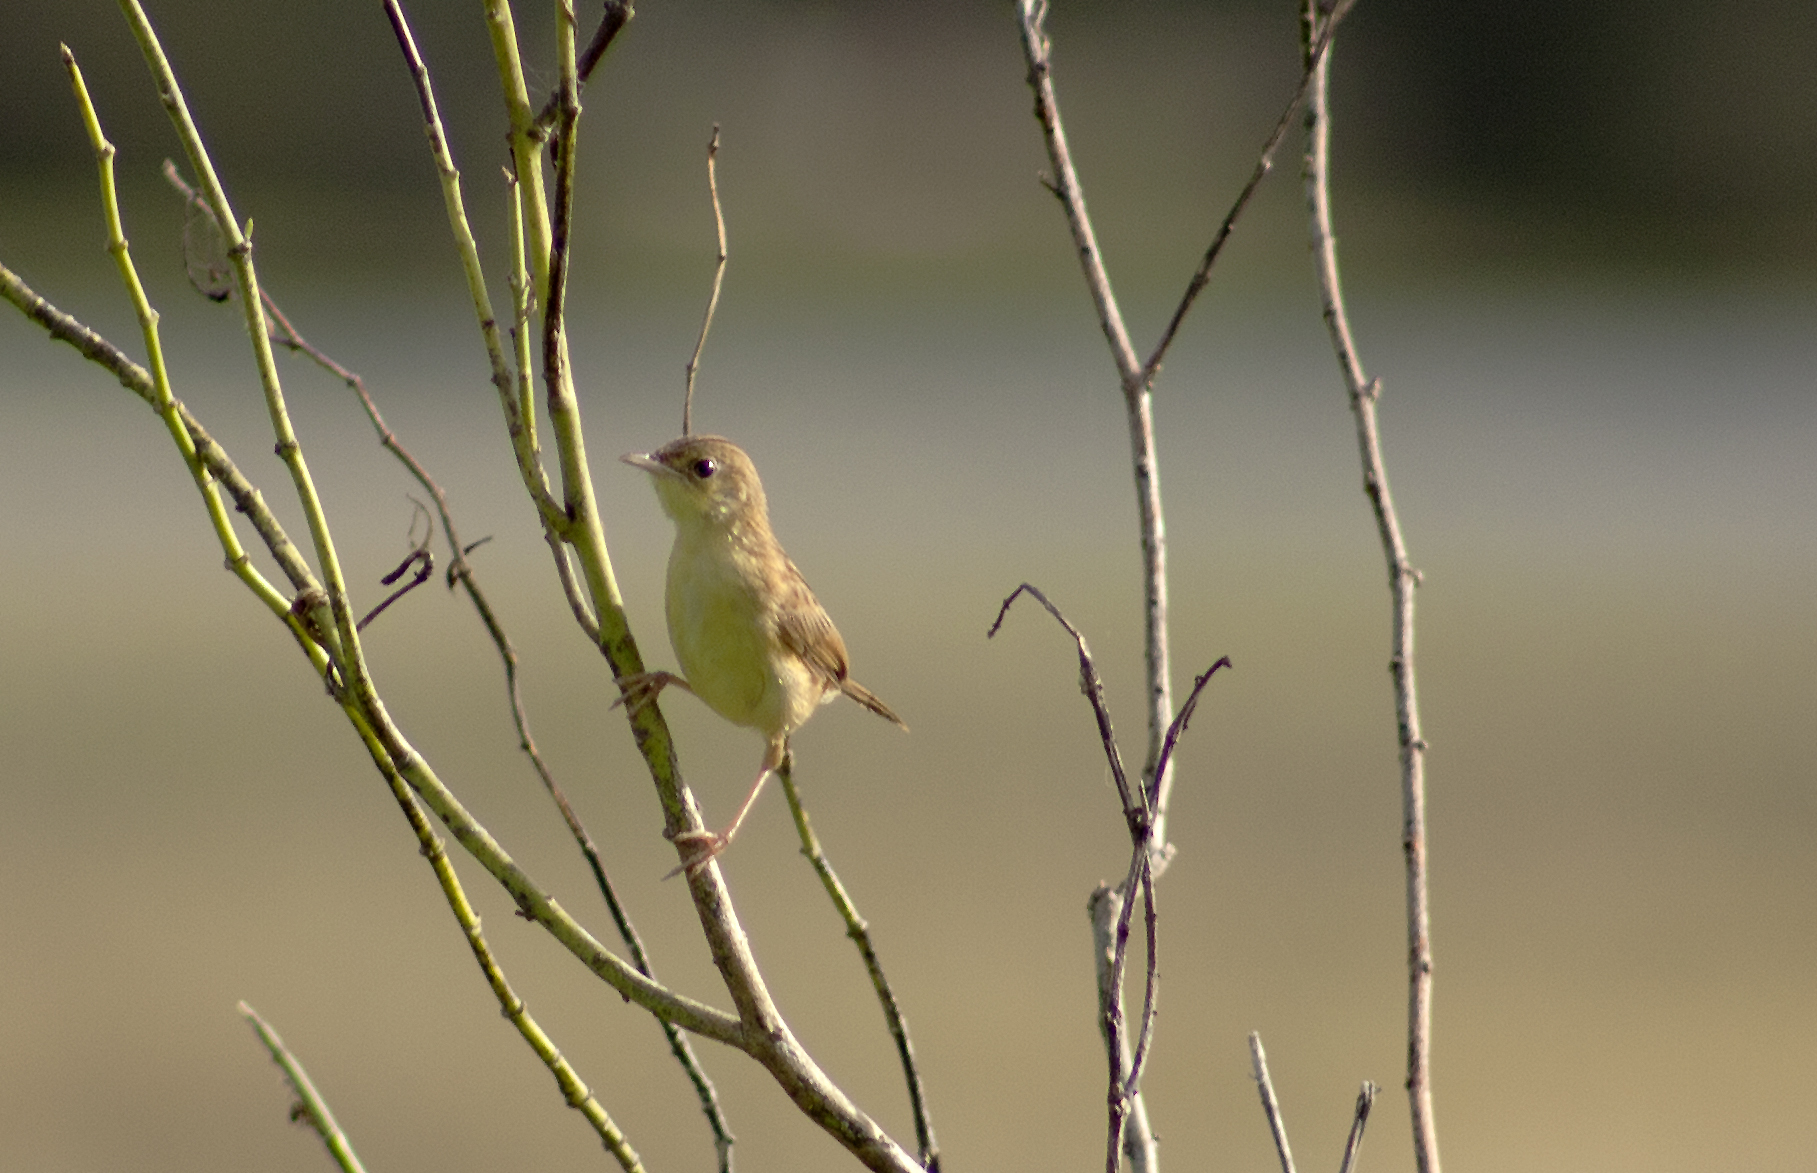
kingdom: Animalia
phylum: Chordata
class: Aves
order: Passeriformes
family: Cisticolidae
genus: Cisticola
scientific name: Cisticola exilis
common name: Golden-headed cisticola
